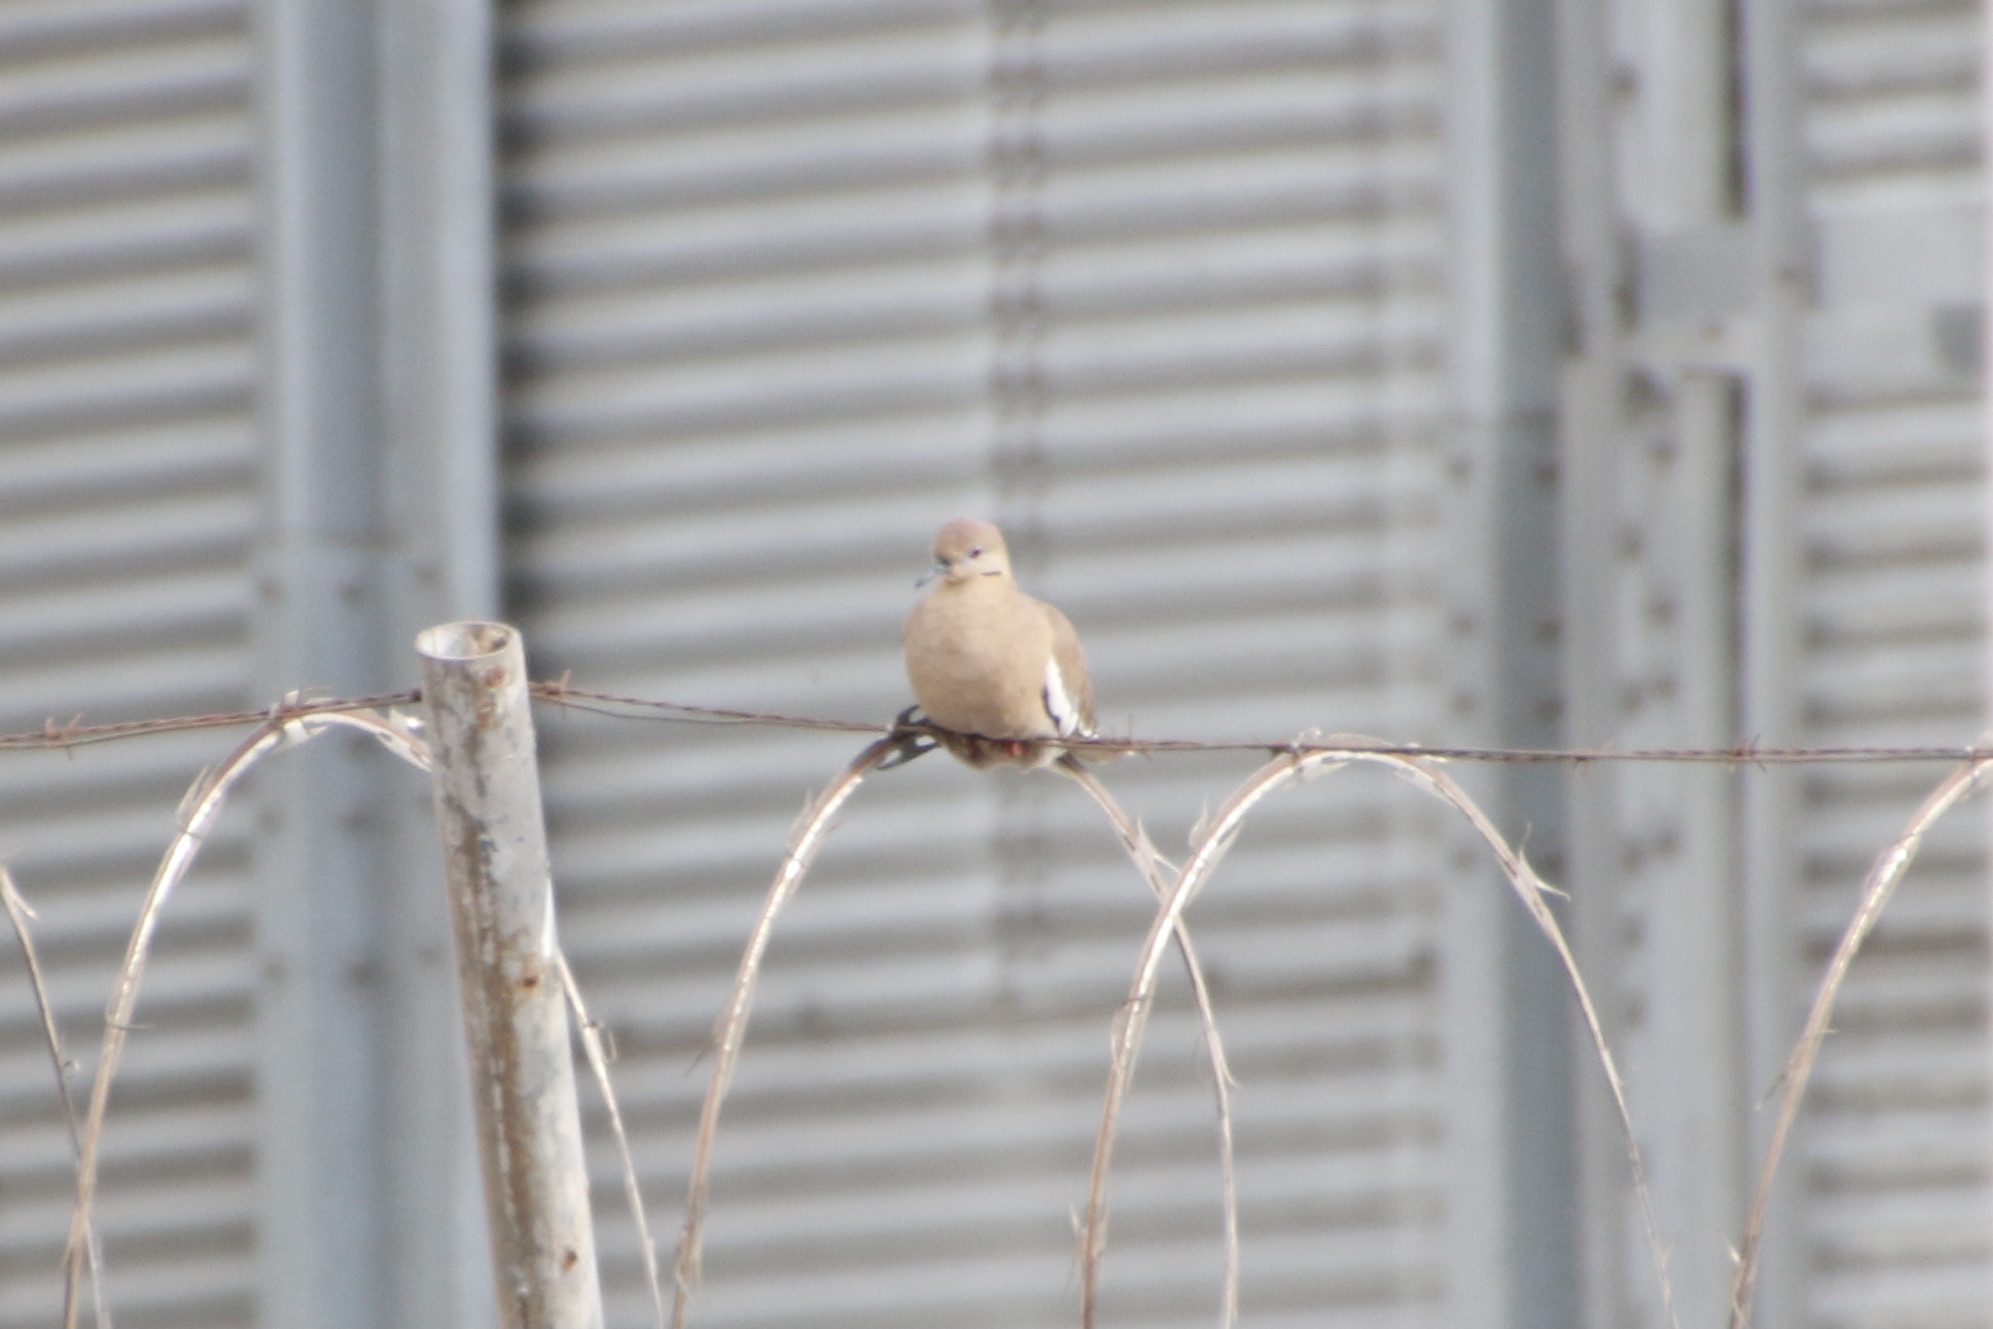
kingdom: Animalia
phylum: Chordata
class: Aves
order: Columbiformes
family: Columbidae
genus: Zenaida
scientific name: Zenaida asiatica
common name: White-winged dove
